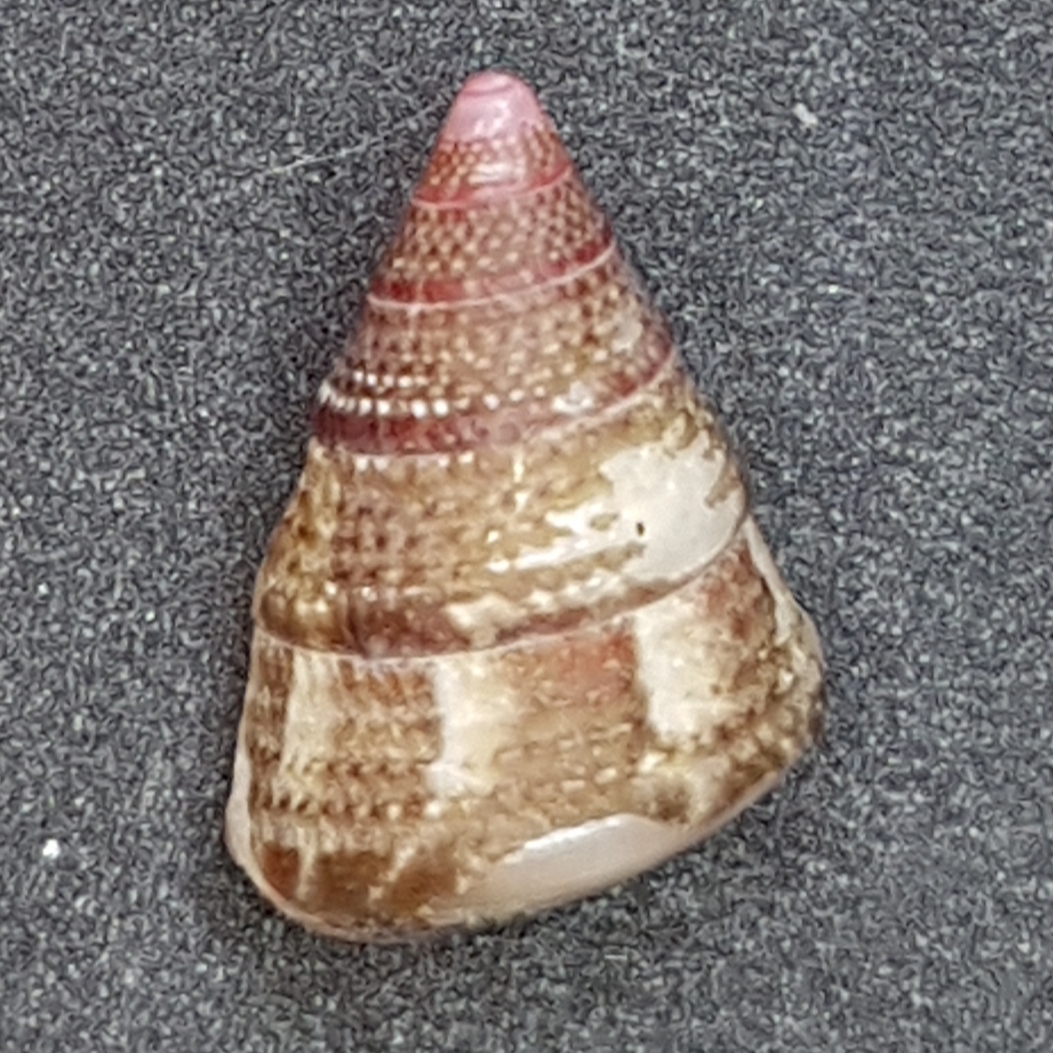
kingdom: Animalia
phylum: Mollusca
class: Gastropoda
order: Trochida
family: Trochidae
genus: Jujubinus
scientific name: Jujubinus exasperatus
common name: Rough top shell
